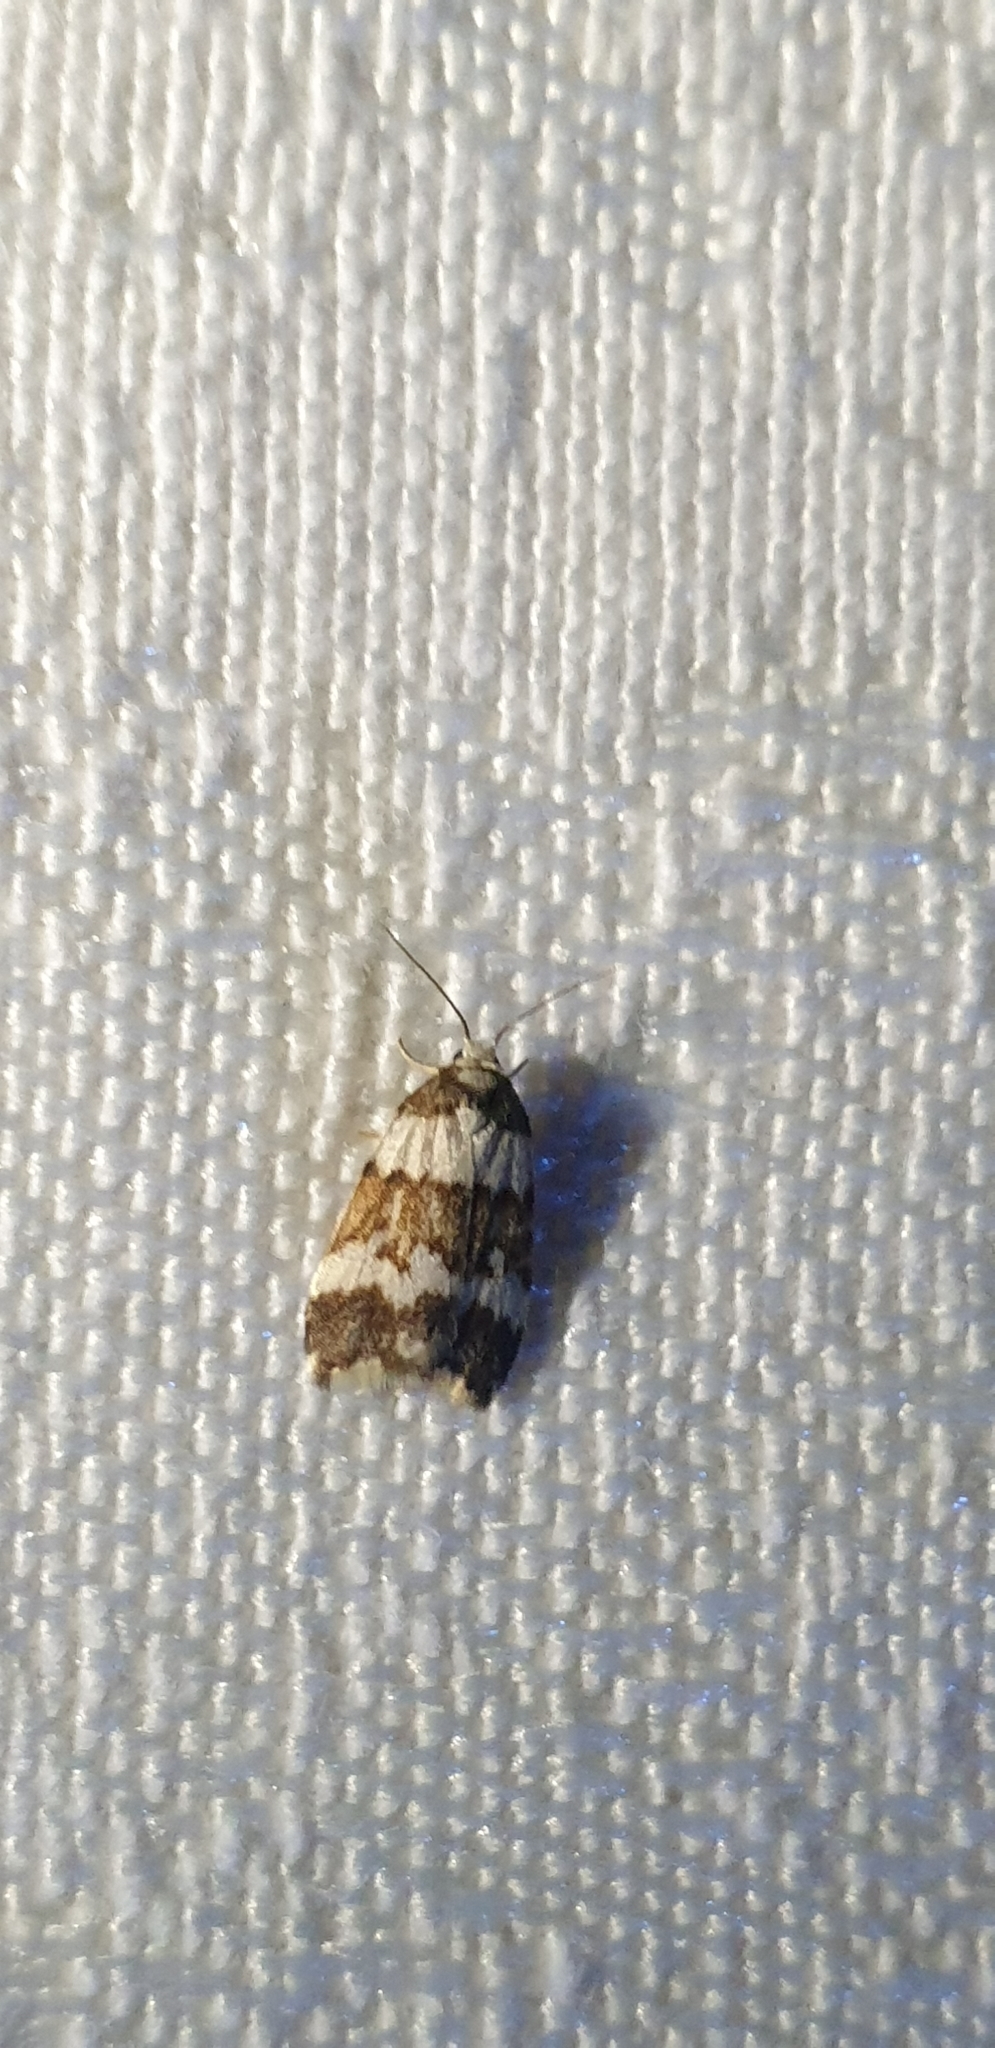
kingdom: Animalia
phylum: Arthropoda
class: Insecta
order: Lepidoptera
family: Erebidae
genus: Halone
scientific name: Halone sejuncta
